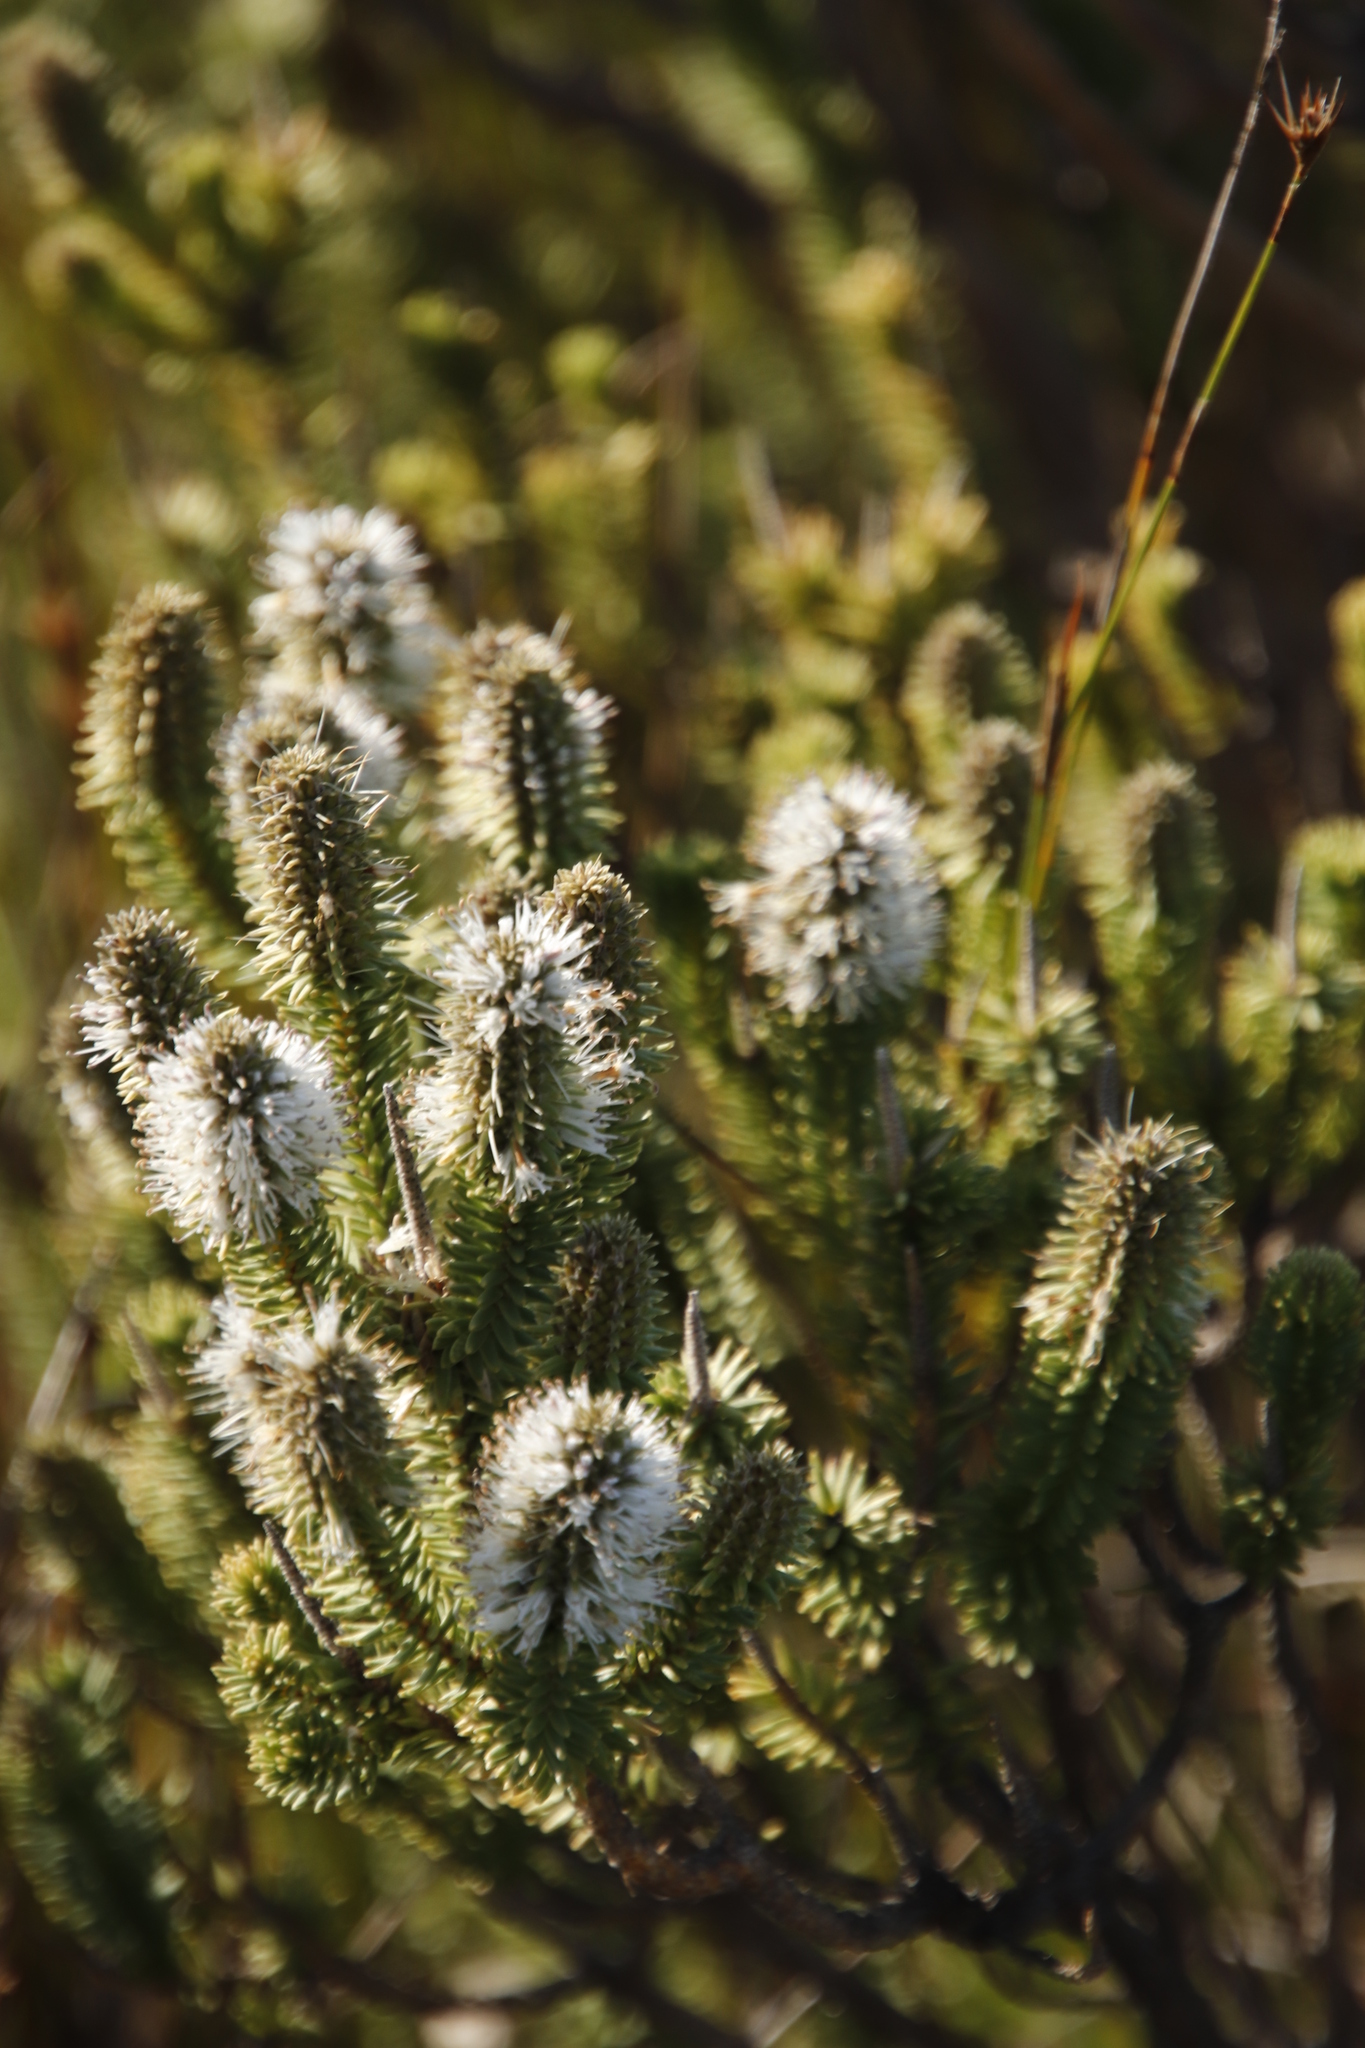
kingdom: Plantae
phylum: Tracheophyta
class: Magnoliopsida
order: Lamiales
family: Stilbaceae
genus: Stilbe
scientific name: Stilbe vestita
